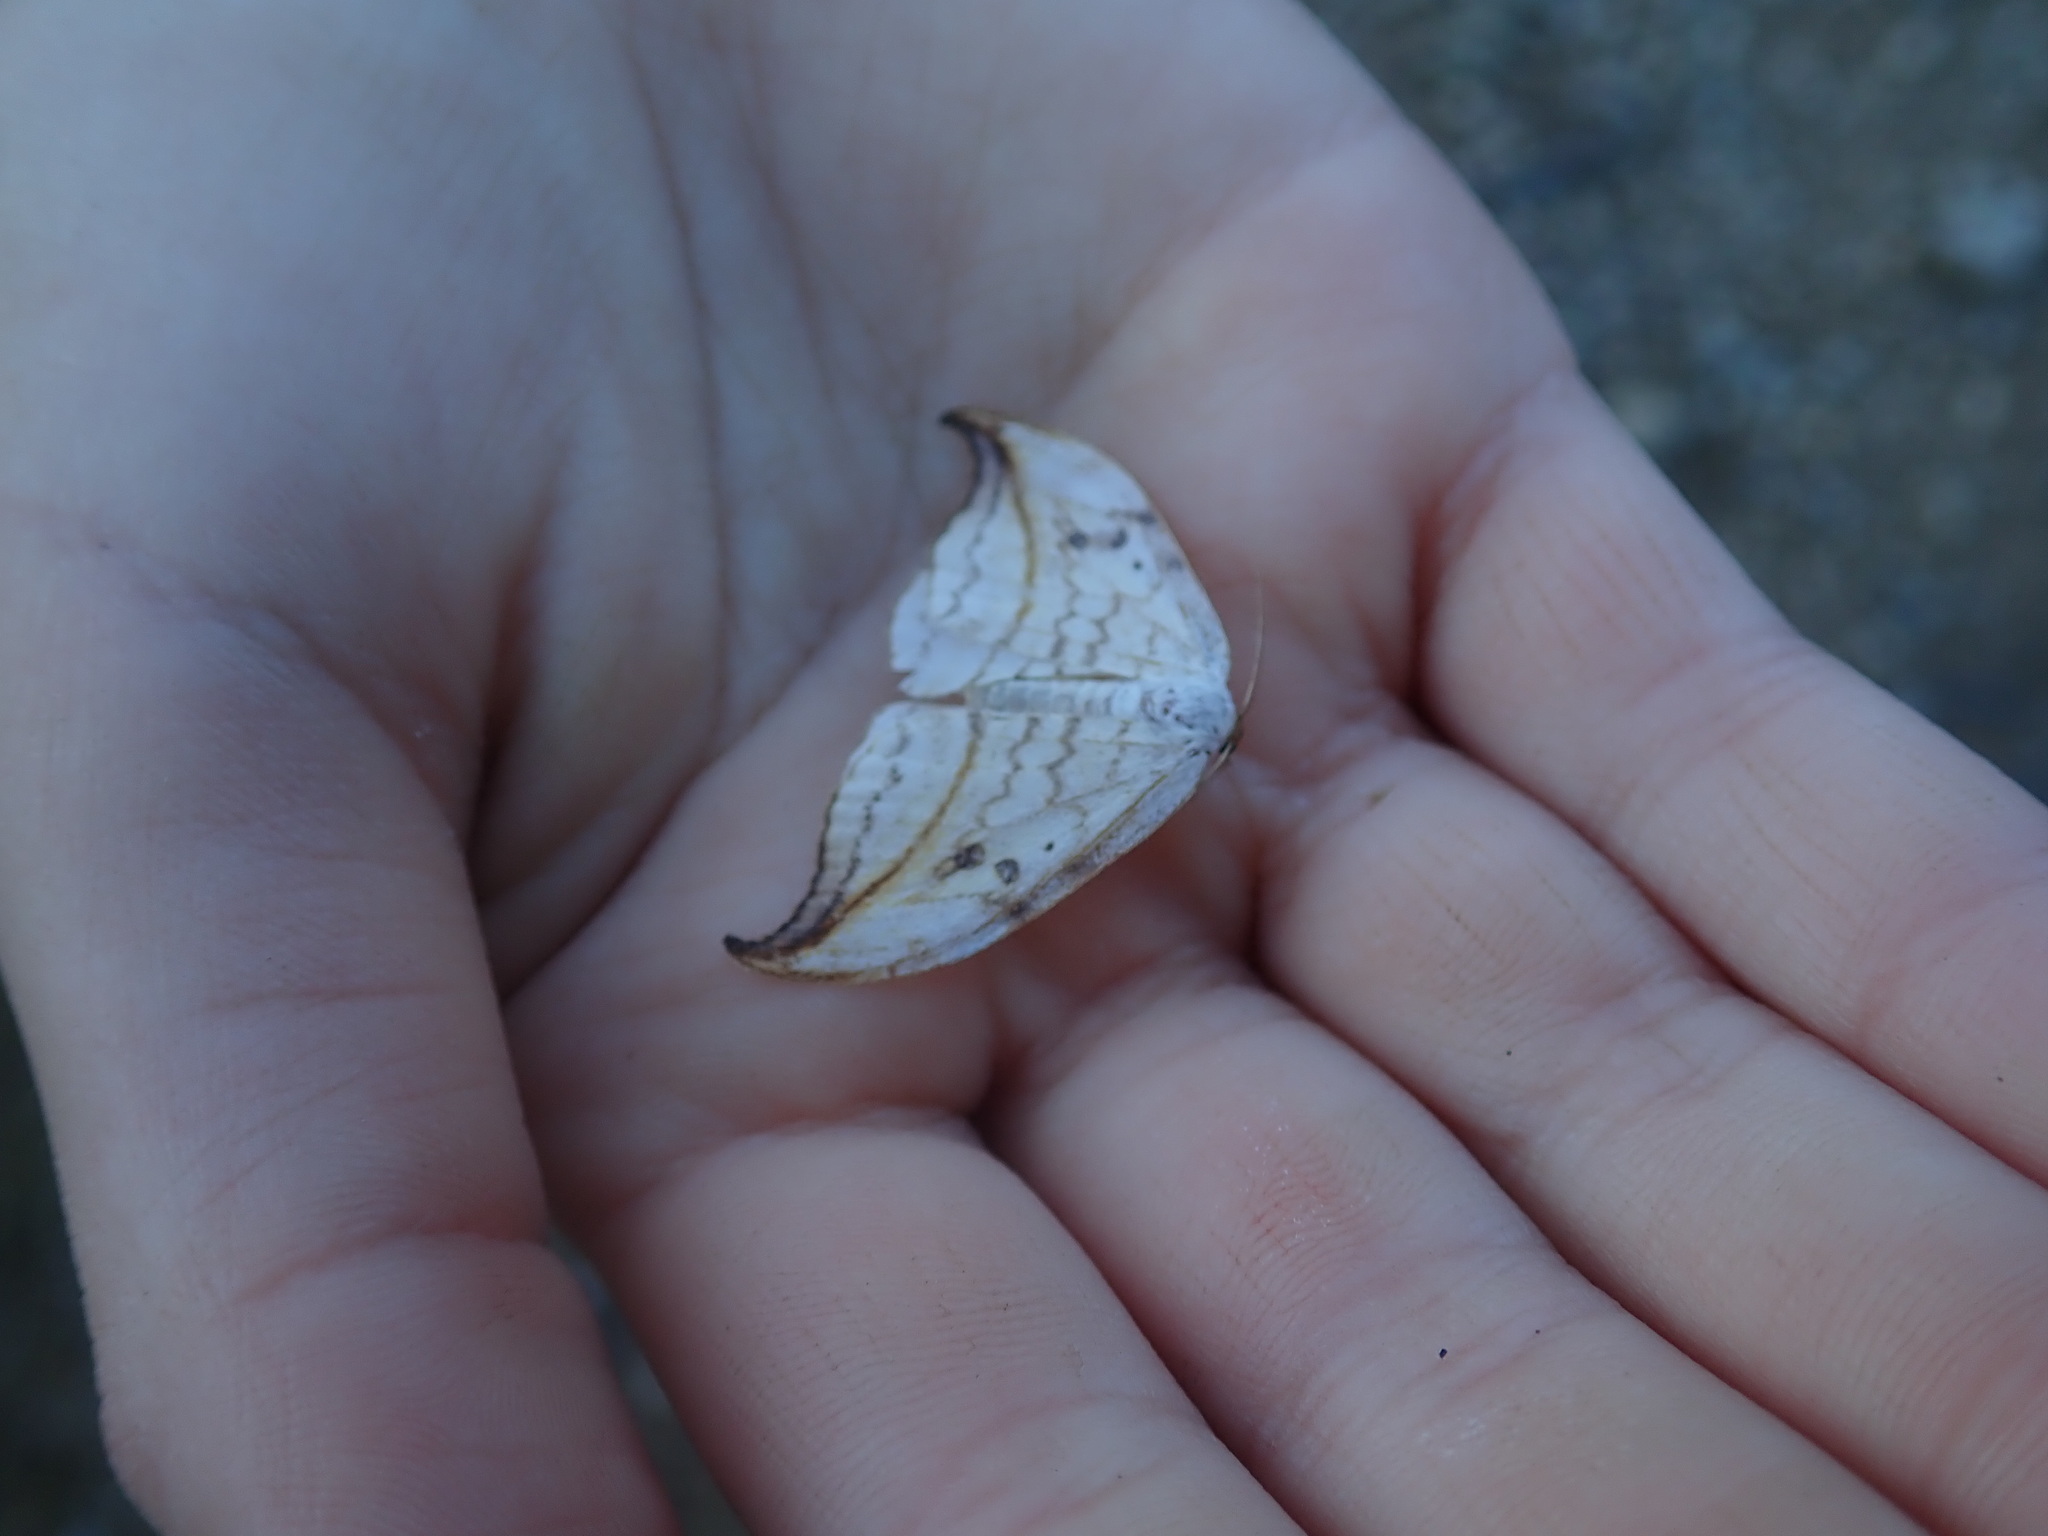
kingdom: Animalia
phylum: Arthropoda
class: Insecta
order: Lepidoptera
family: Drepanidae
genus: Drepana
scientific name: Drepana arcuata
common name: Arched hooktip moth
